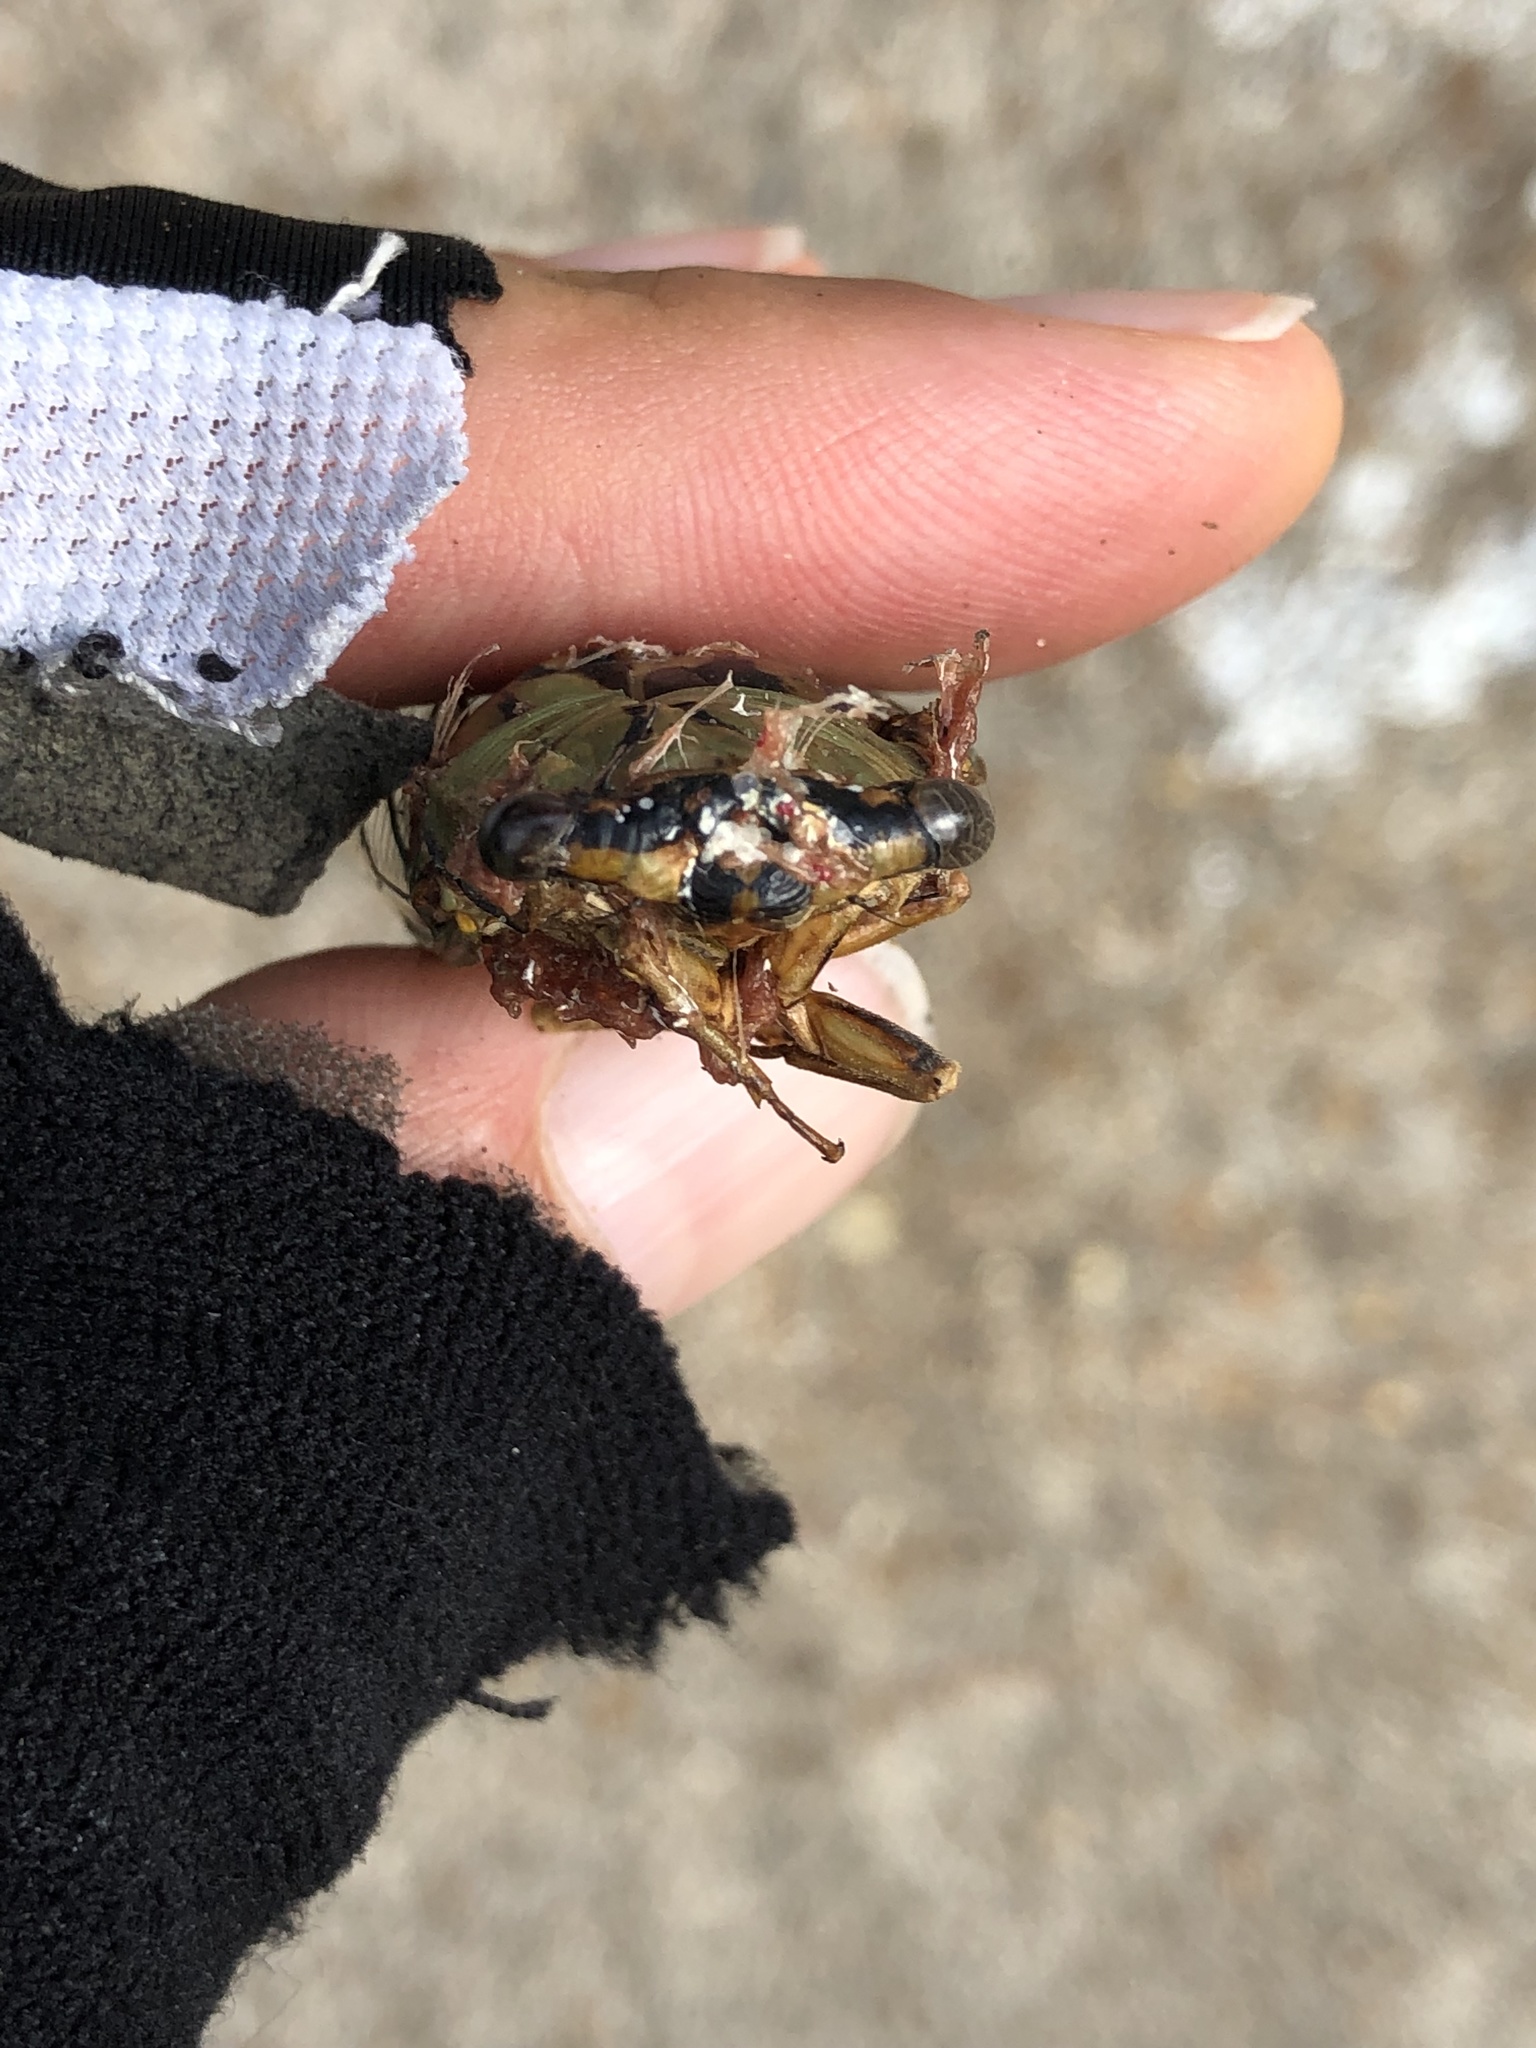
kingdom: Animalia
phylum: Arthropoda
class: Insecta
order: Hemiptera
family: Cicadidae
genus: Megatibicen
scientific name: Megatibicen resh
